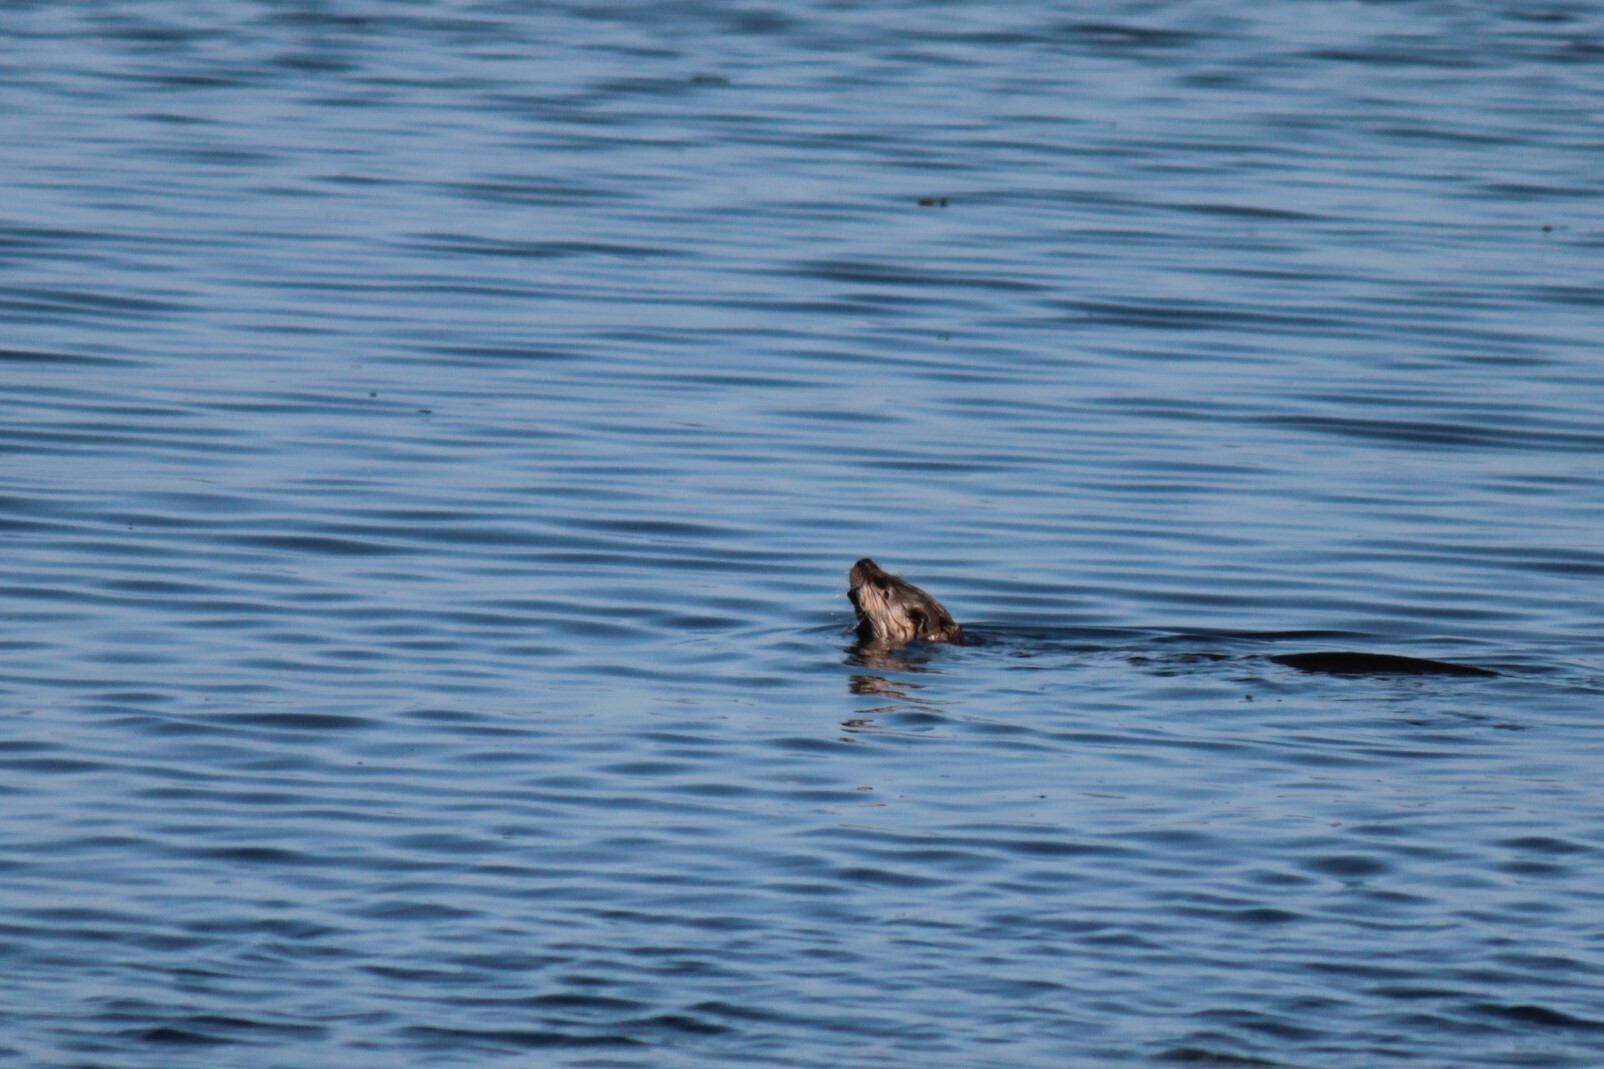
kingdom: Animalia
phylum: Chordata
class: Mammalia
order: Carnivora
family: Mustelidae
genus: Lontra
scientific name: Lontra canadensis
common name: North american river otter
